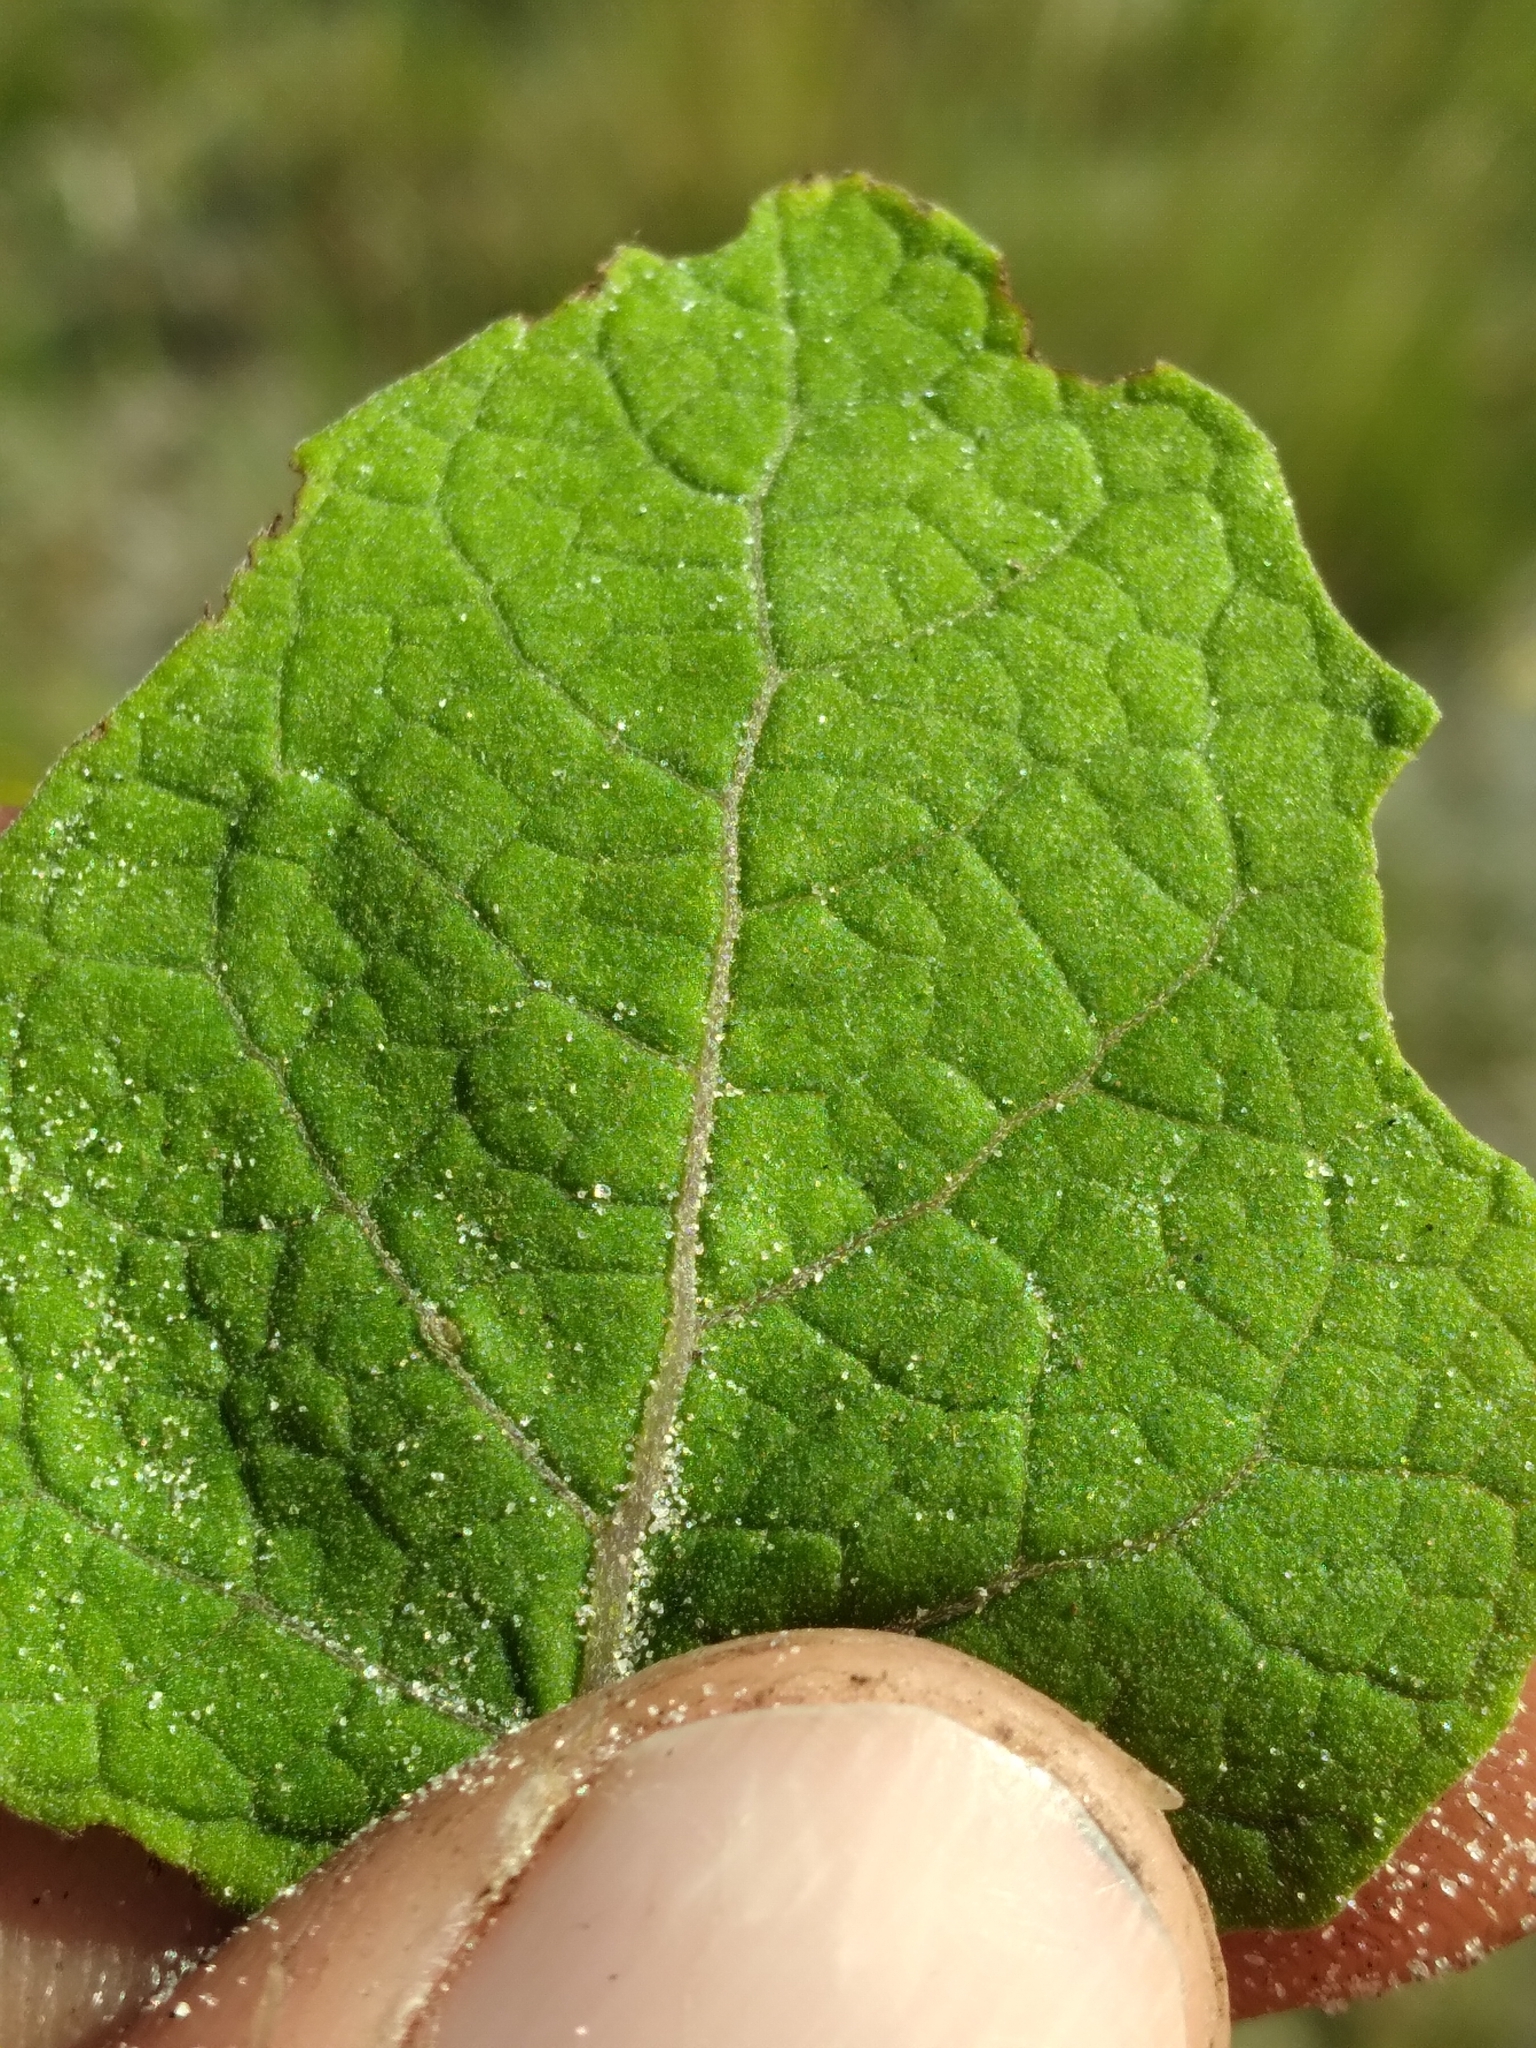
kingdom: Plantae
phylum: Tracheophyta
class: Magnoliopsida
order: Solanales
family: Solanaceae
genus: Physalis
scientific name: Physalis arenicola
